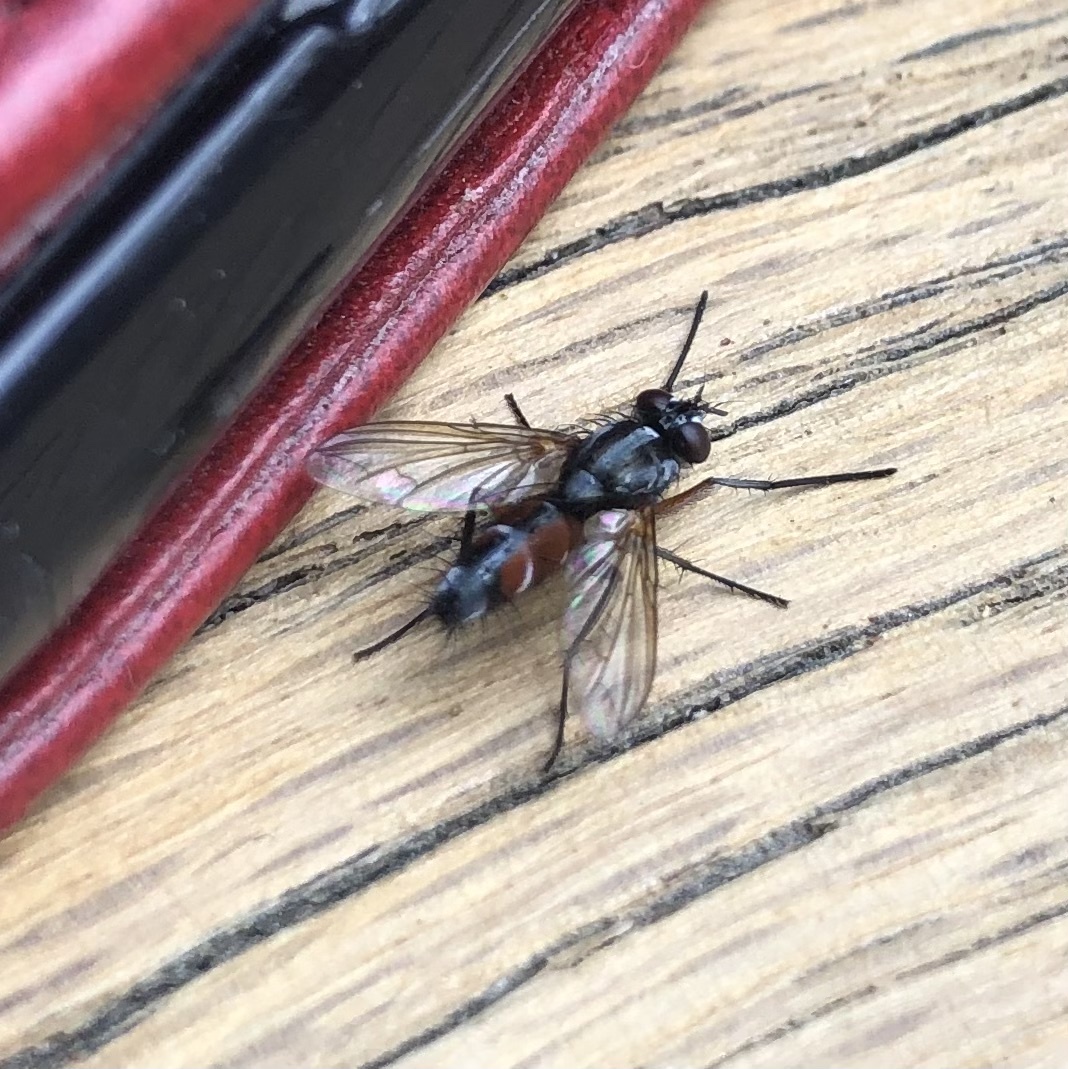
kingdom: Animalia
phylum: Arthropoda
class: Insecta
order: Diptera
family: Tachinidae
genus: Mintho
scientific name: Mintho rufiventris
